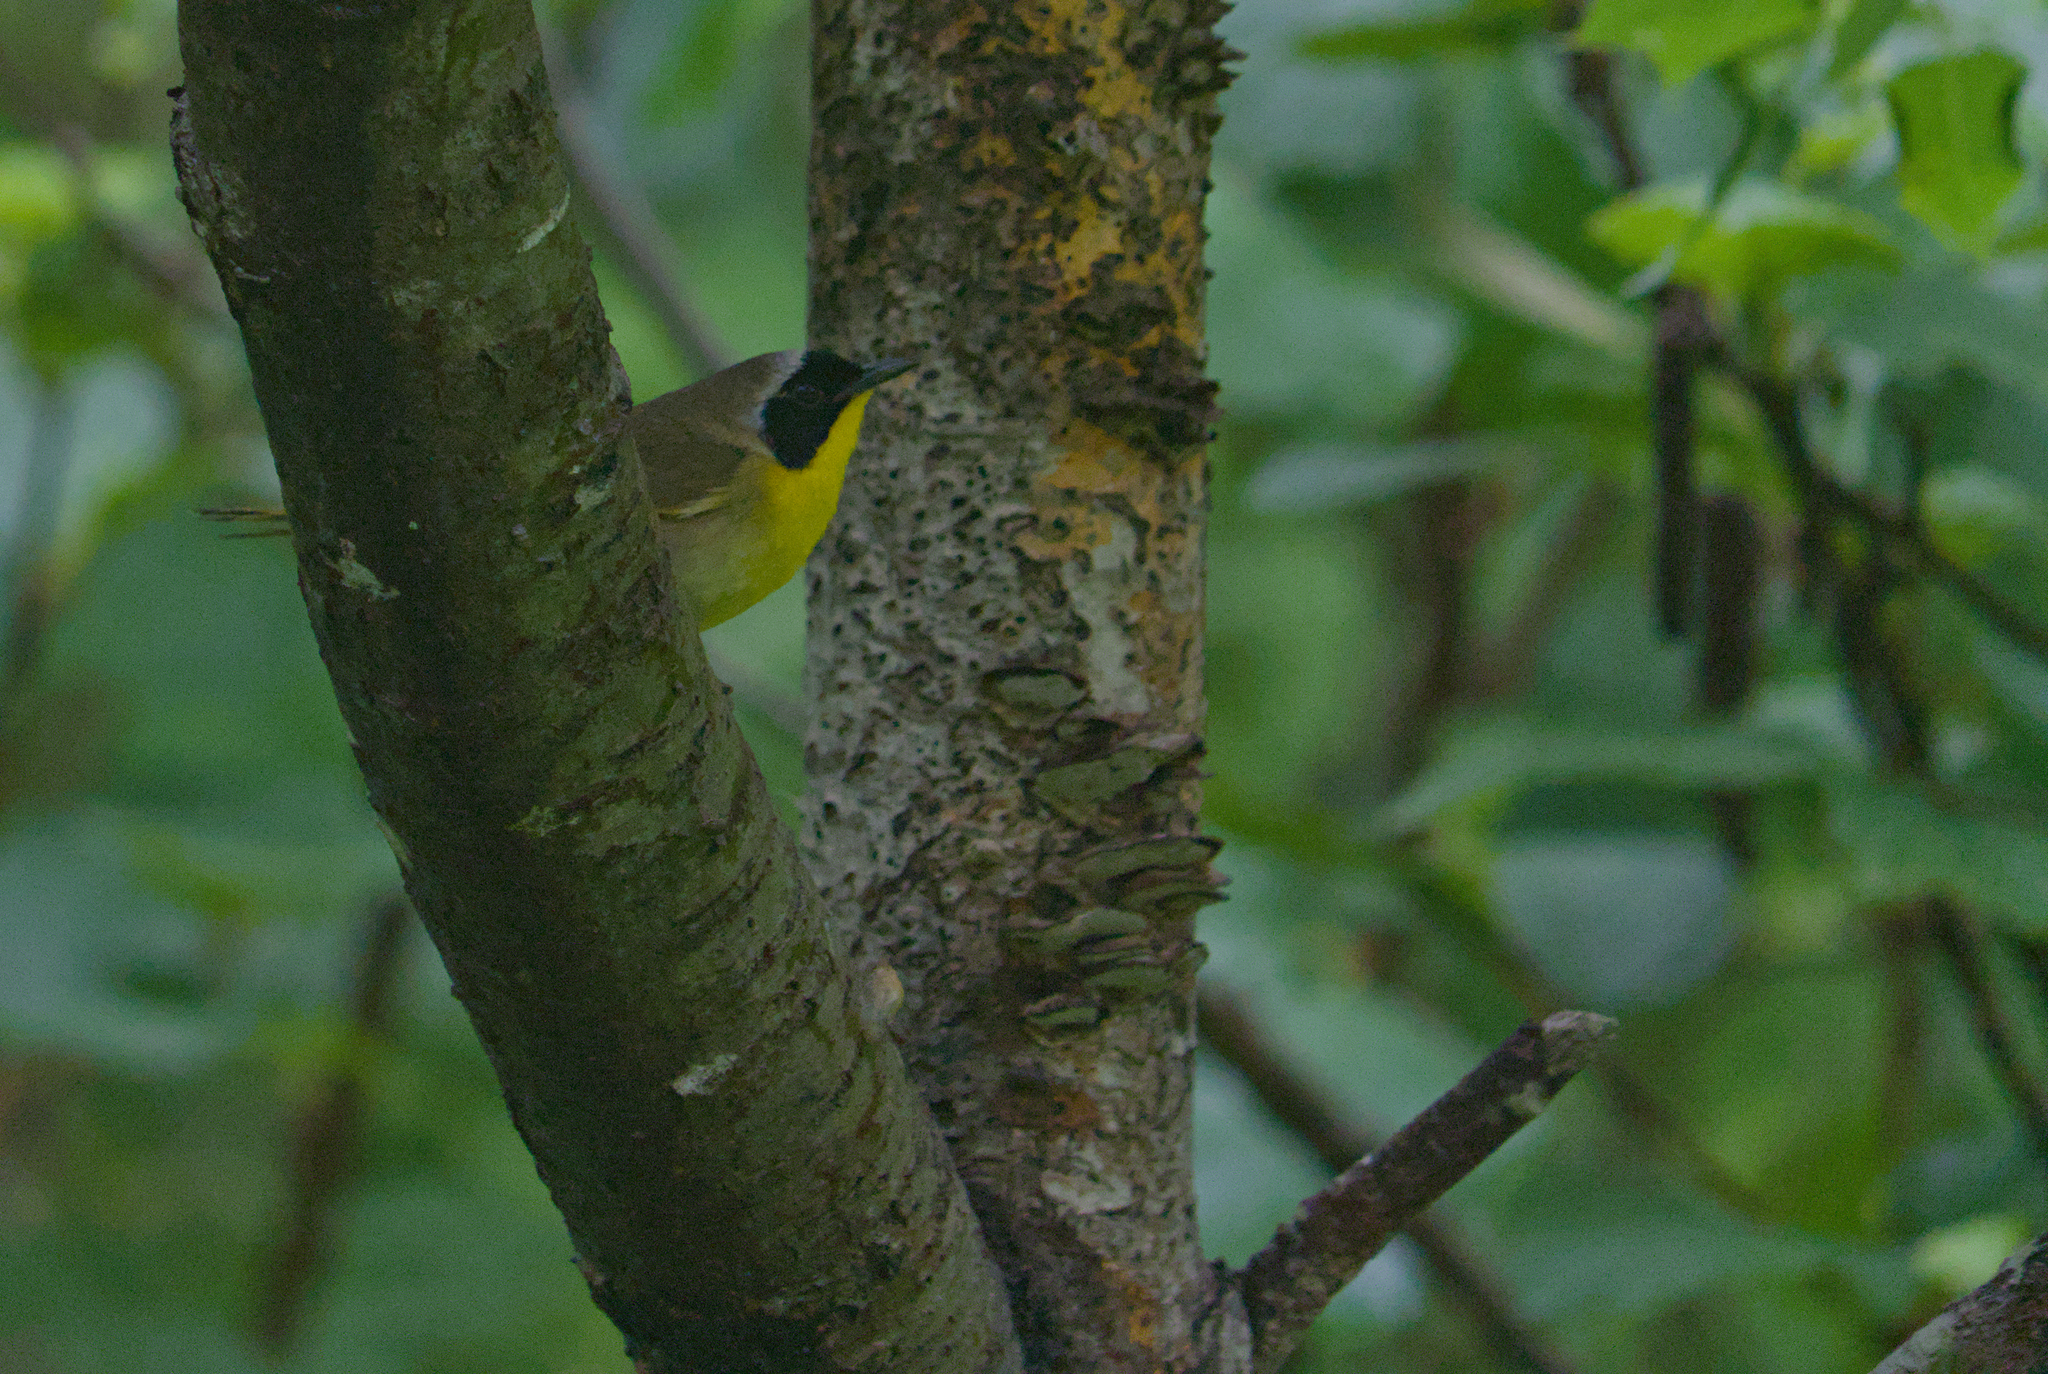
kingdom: Animalia
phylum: Chordata
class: Aves
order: Passeriformes
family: Parulidae
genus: Geothlypis
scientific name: Geothlypis trichas
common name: Common yellowthroat
